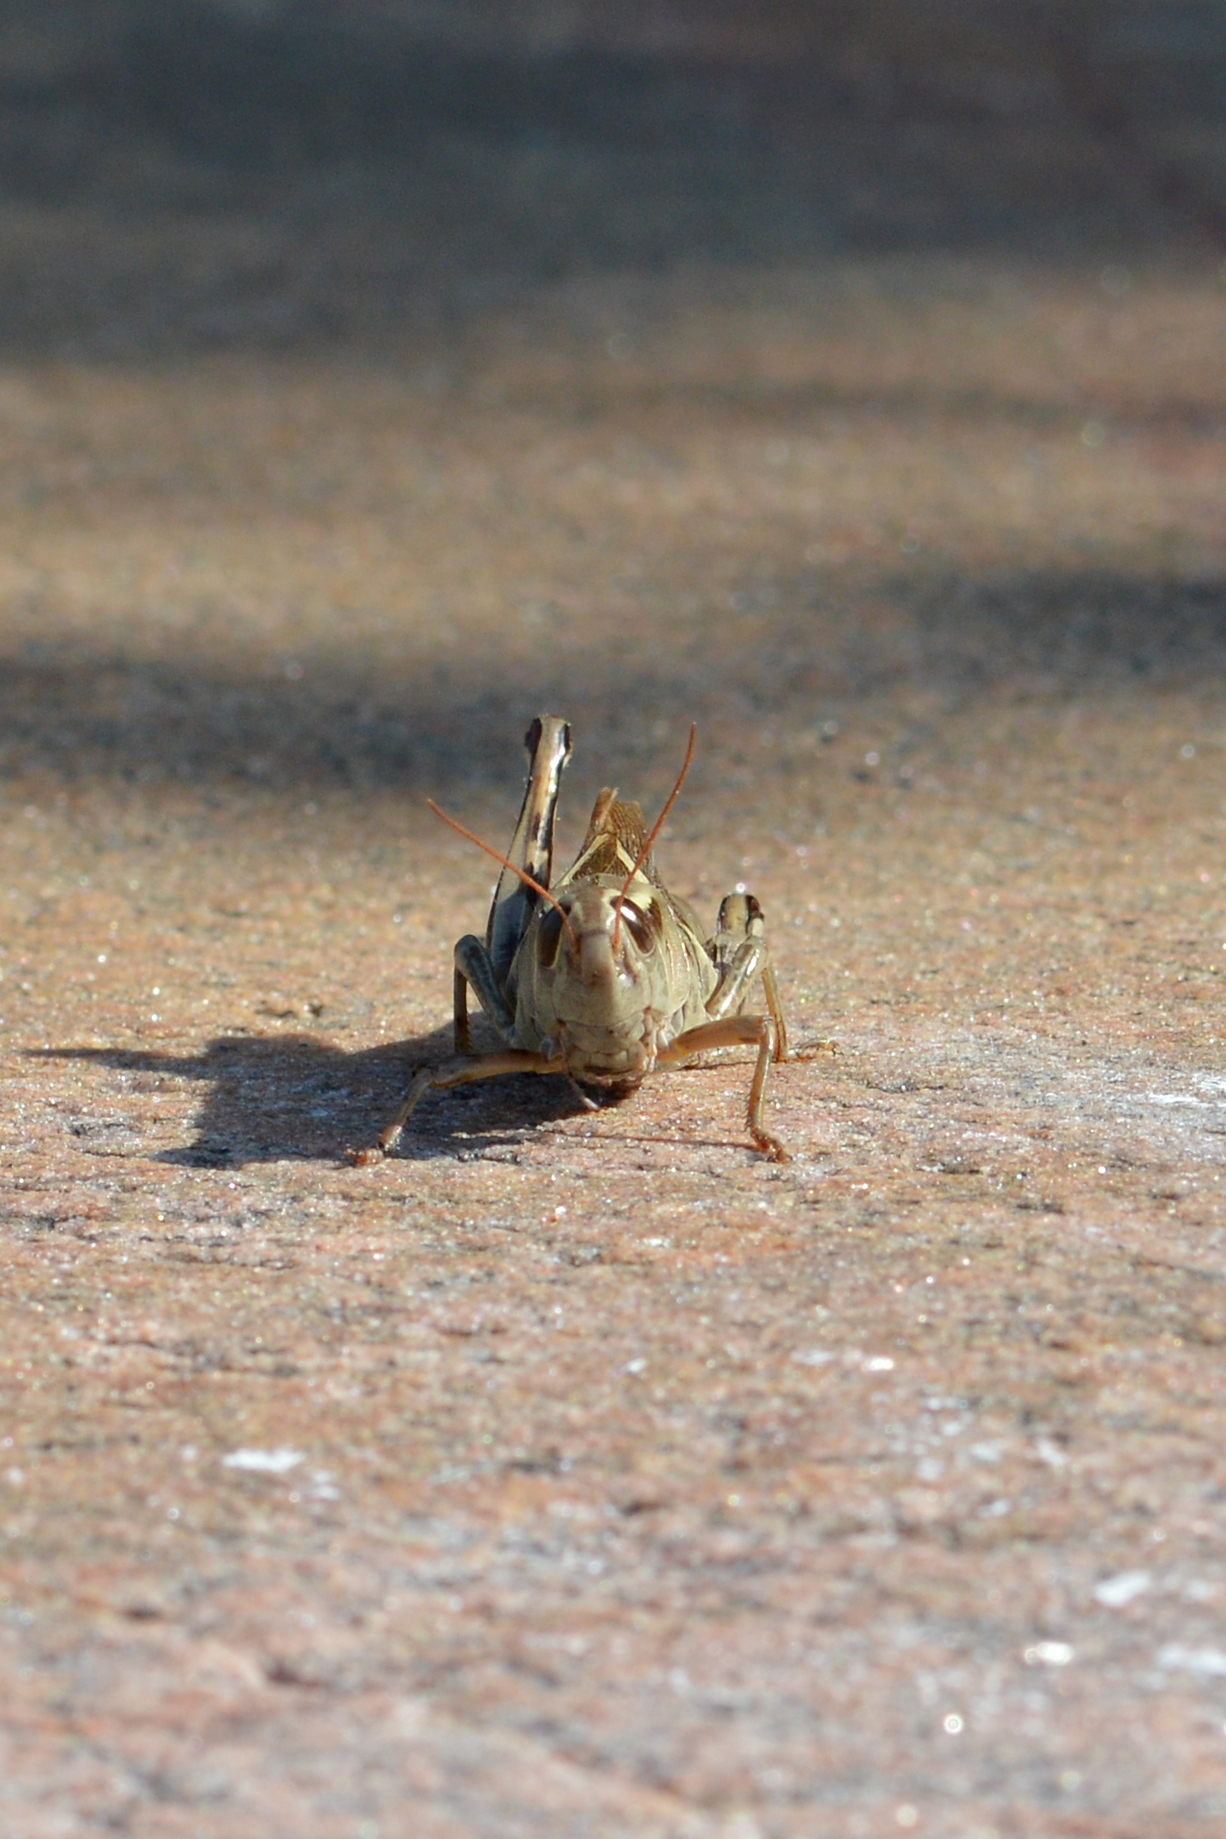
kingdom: Animalia
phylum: Arthropoda
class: Insecta
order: Orthoptera
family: Acrididae
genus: Melanoplus
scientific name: Melanoplus bivittatus
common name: Two-striped grasshopper
